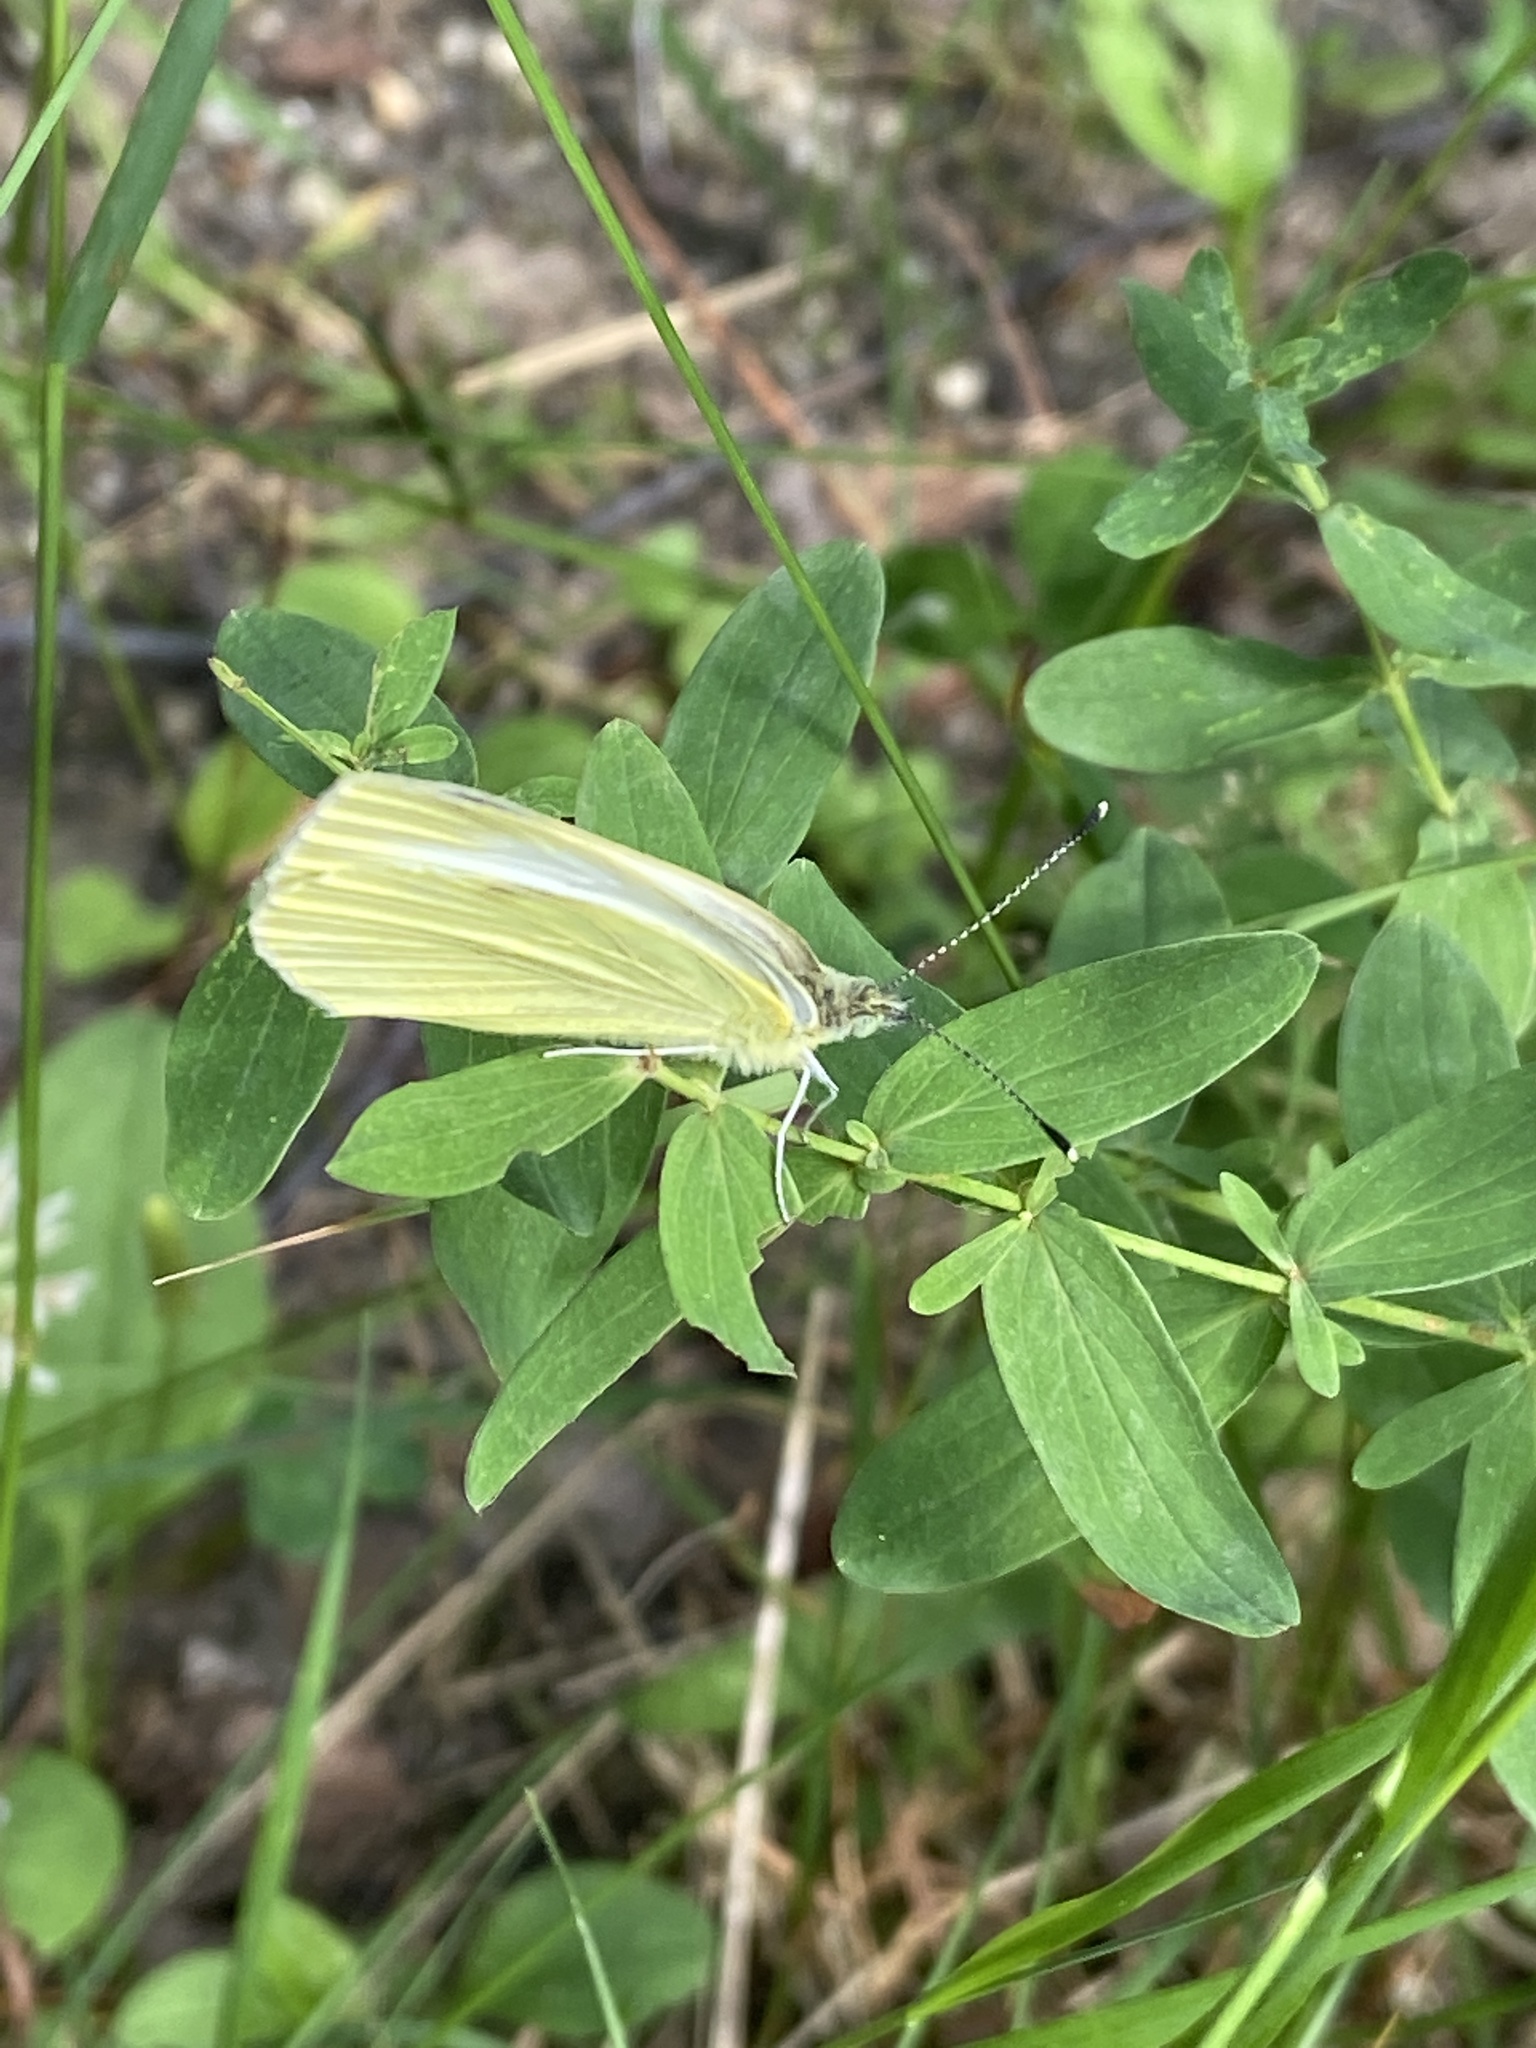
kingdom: Animalia
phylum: Arthropoda
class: Insecta
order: Lepidoptera
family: Pieridae
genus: Pieris
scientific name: Pieris rapae
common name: Small white
